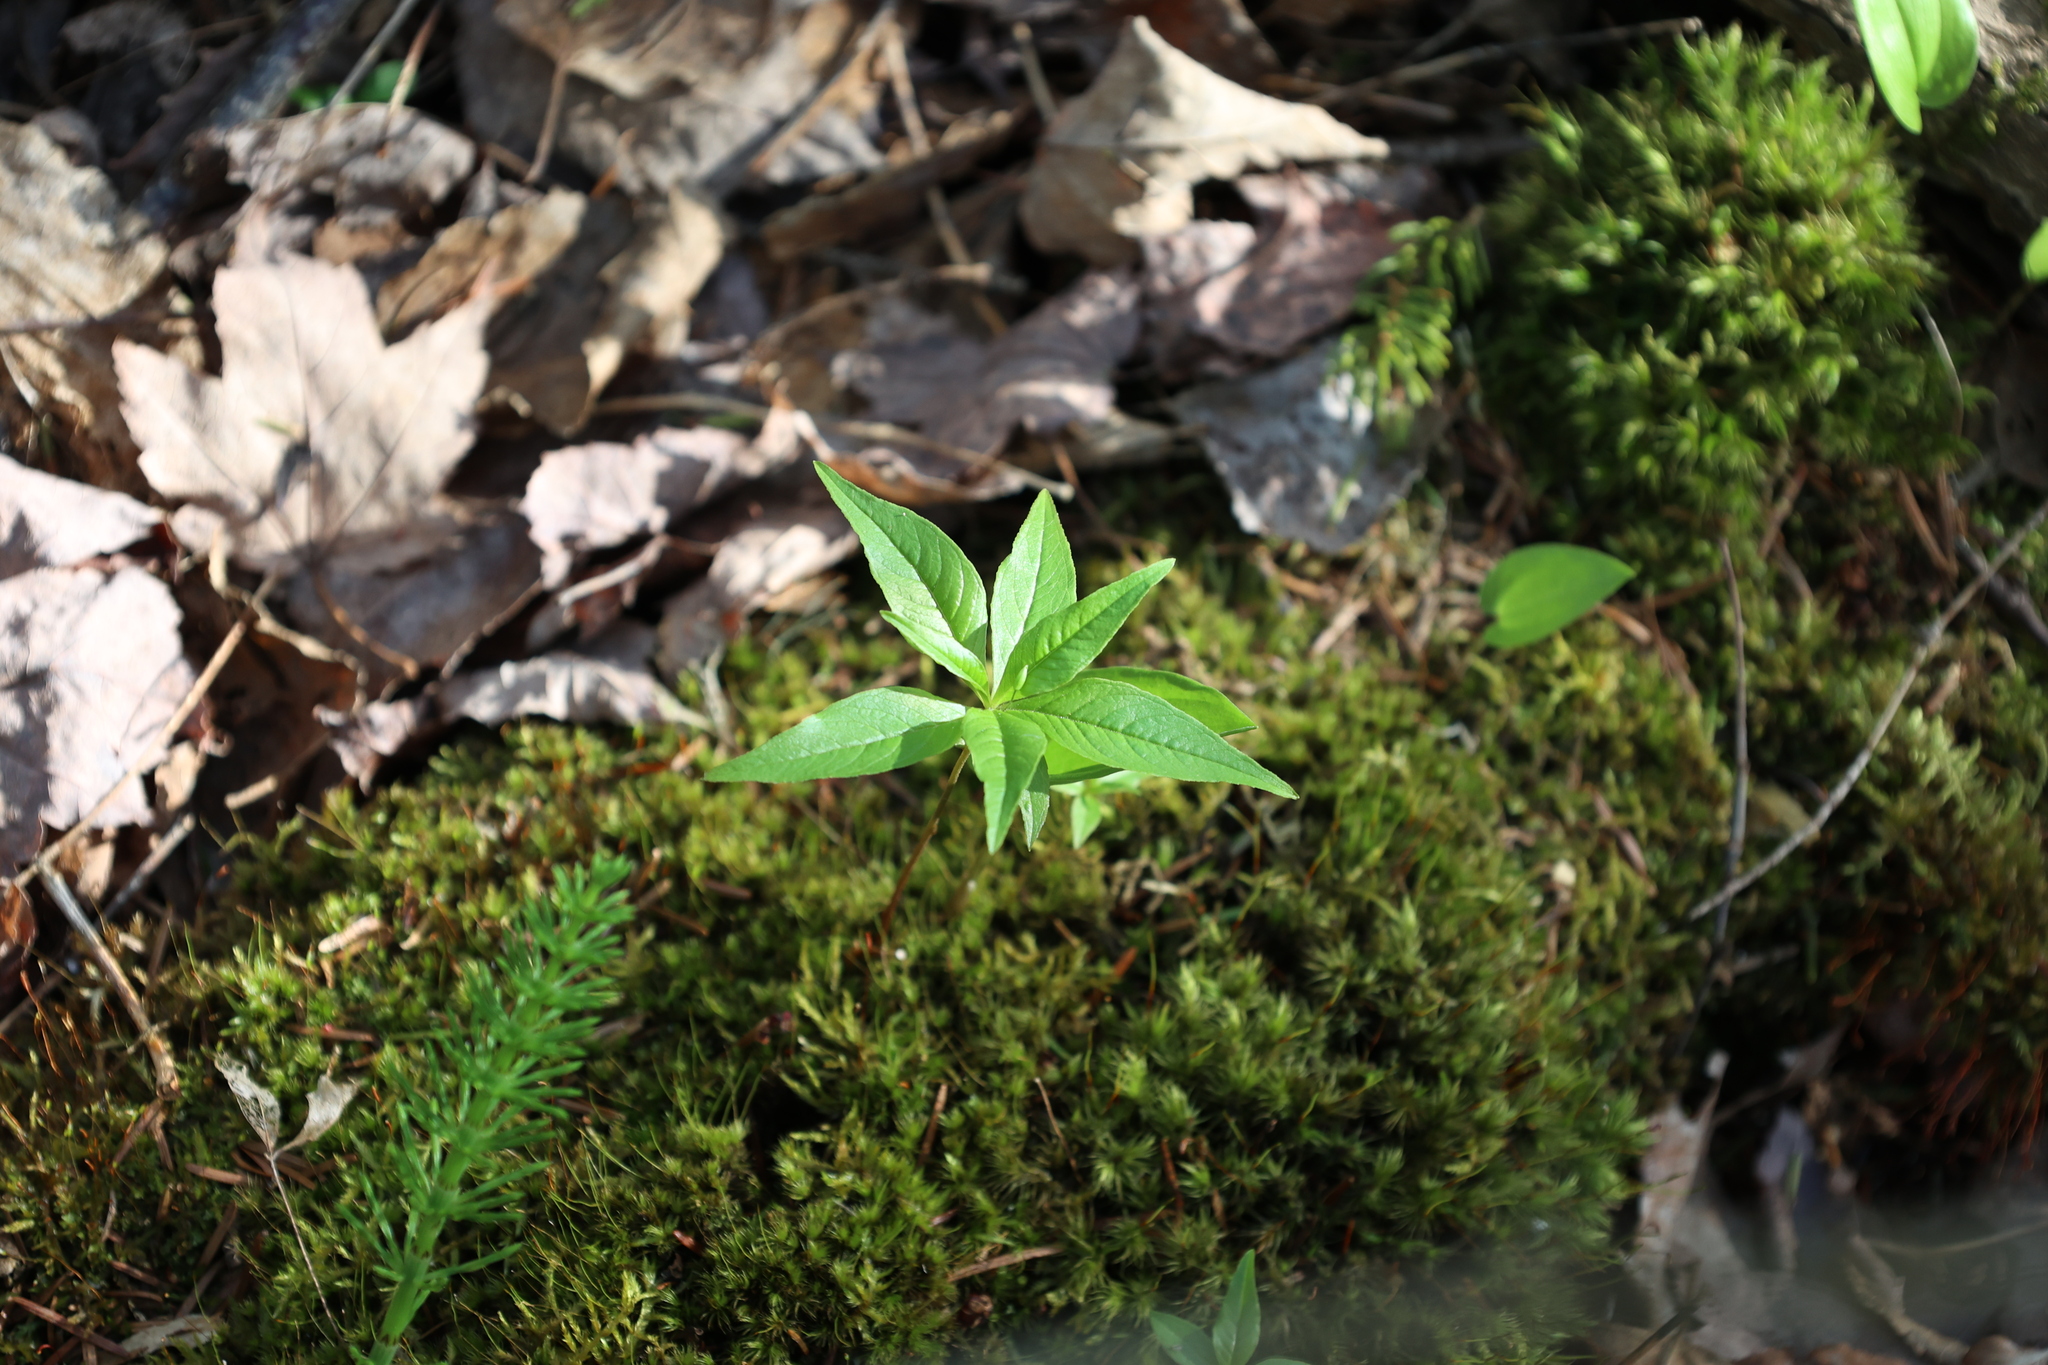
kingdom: Plantae
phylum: Tracheophyta
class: Magnoliopsida
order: Ericales
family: Primulaceae
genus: Lysimachia
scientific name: Lysimachia borealis
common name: American starflower
